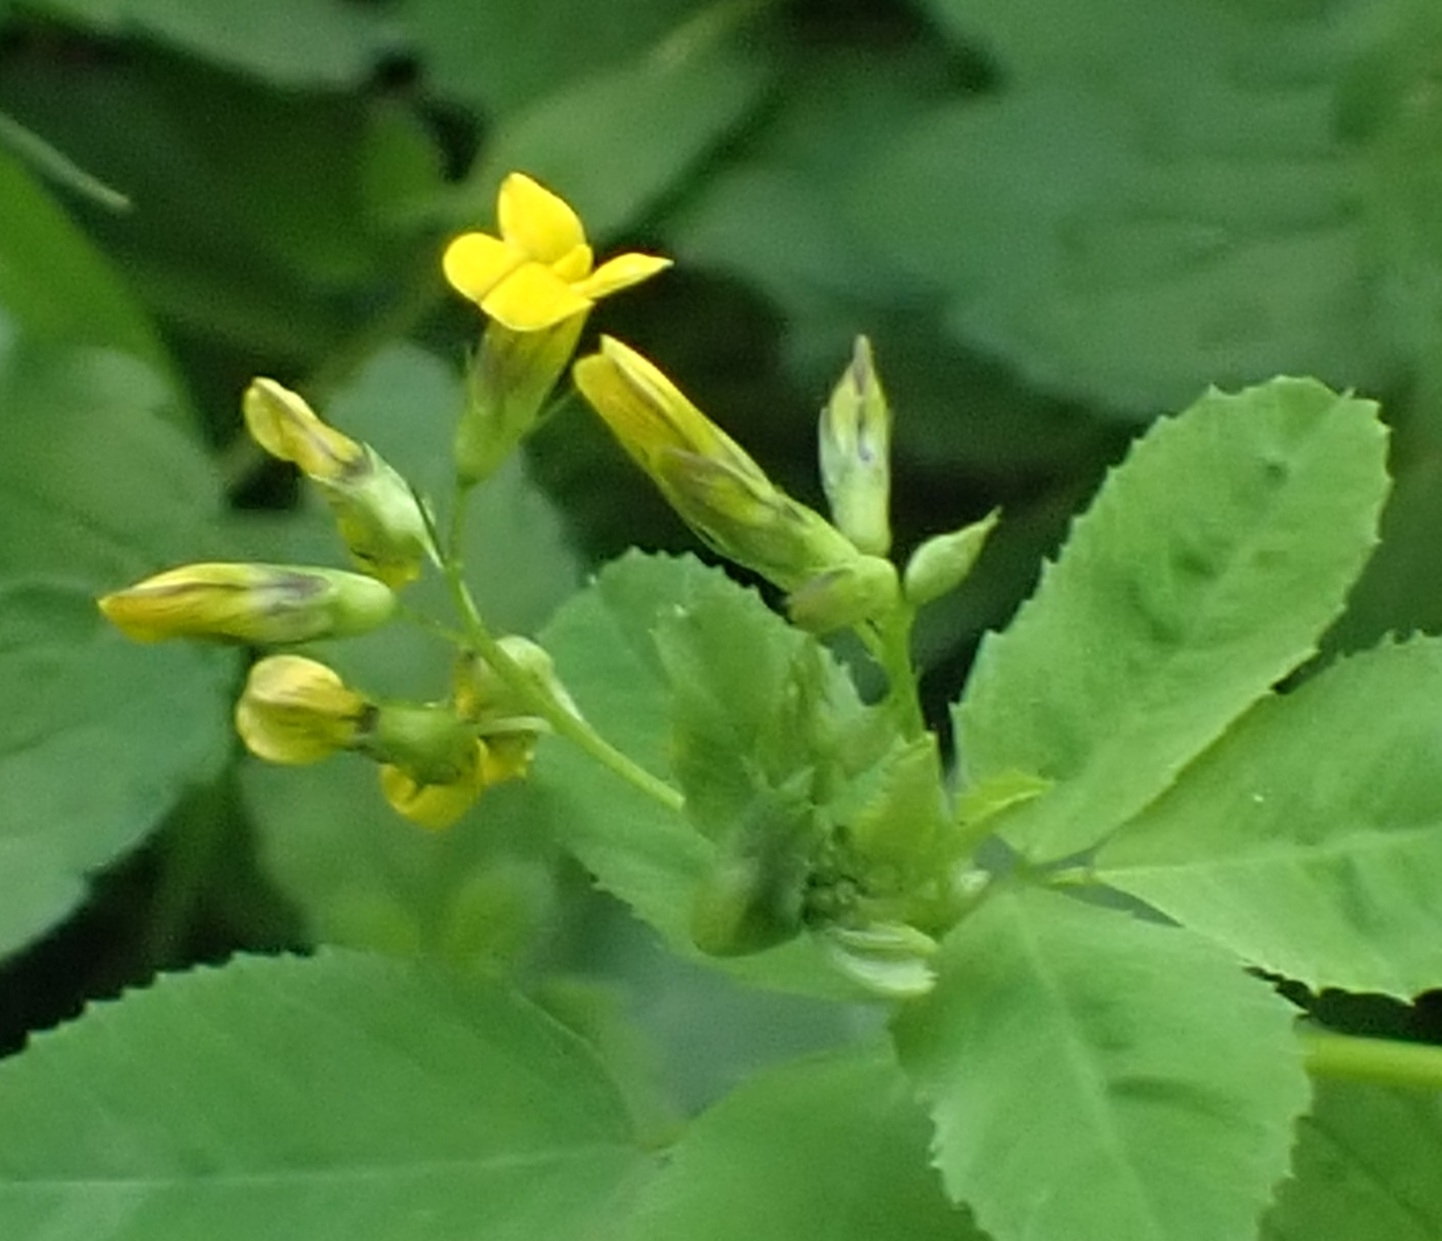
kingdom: Plantae
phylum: Tracheophyta
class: Magnoliopsida
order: Fabales
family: Fabaceae
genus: Medicago
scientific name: Medicago platycarpos
